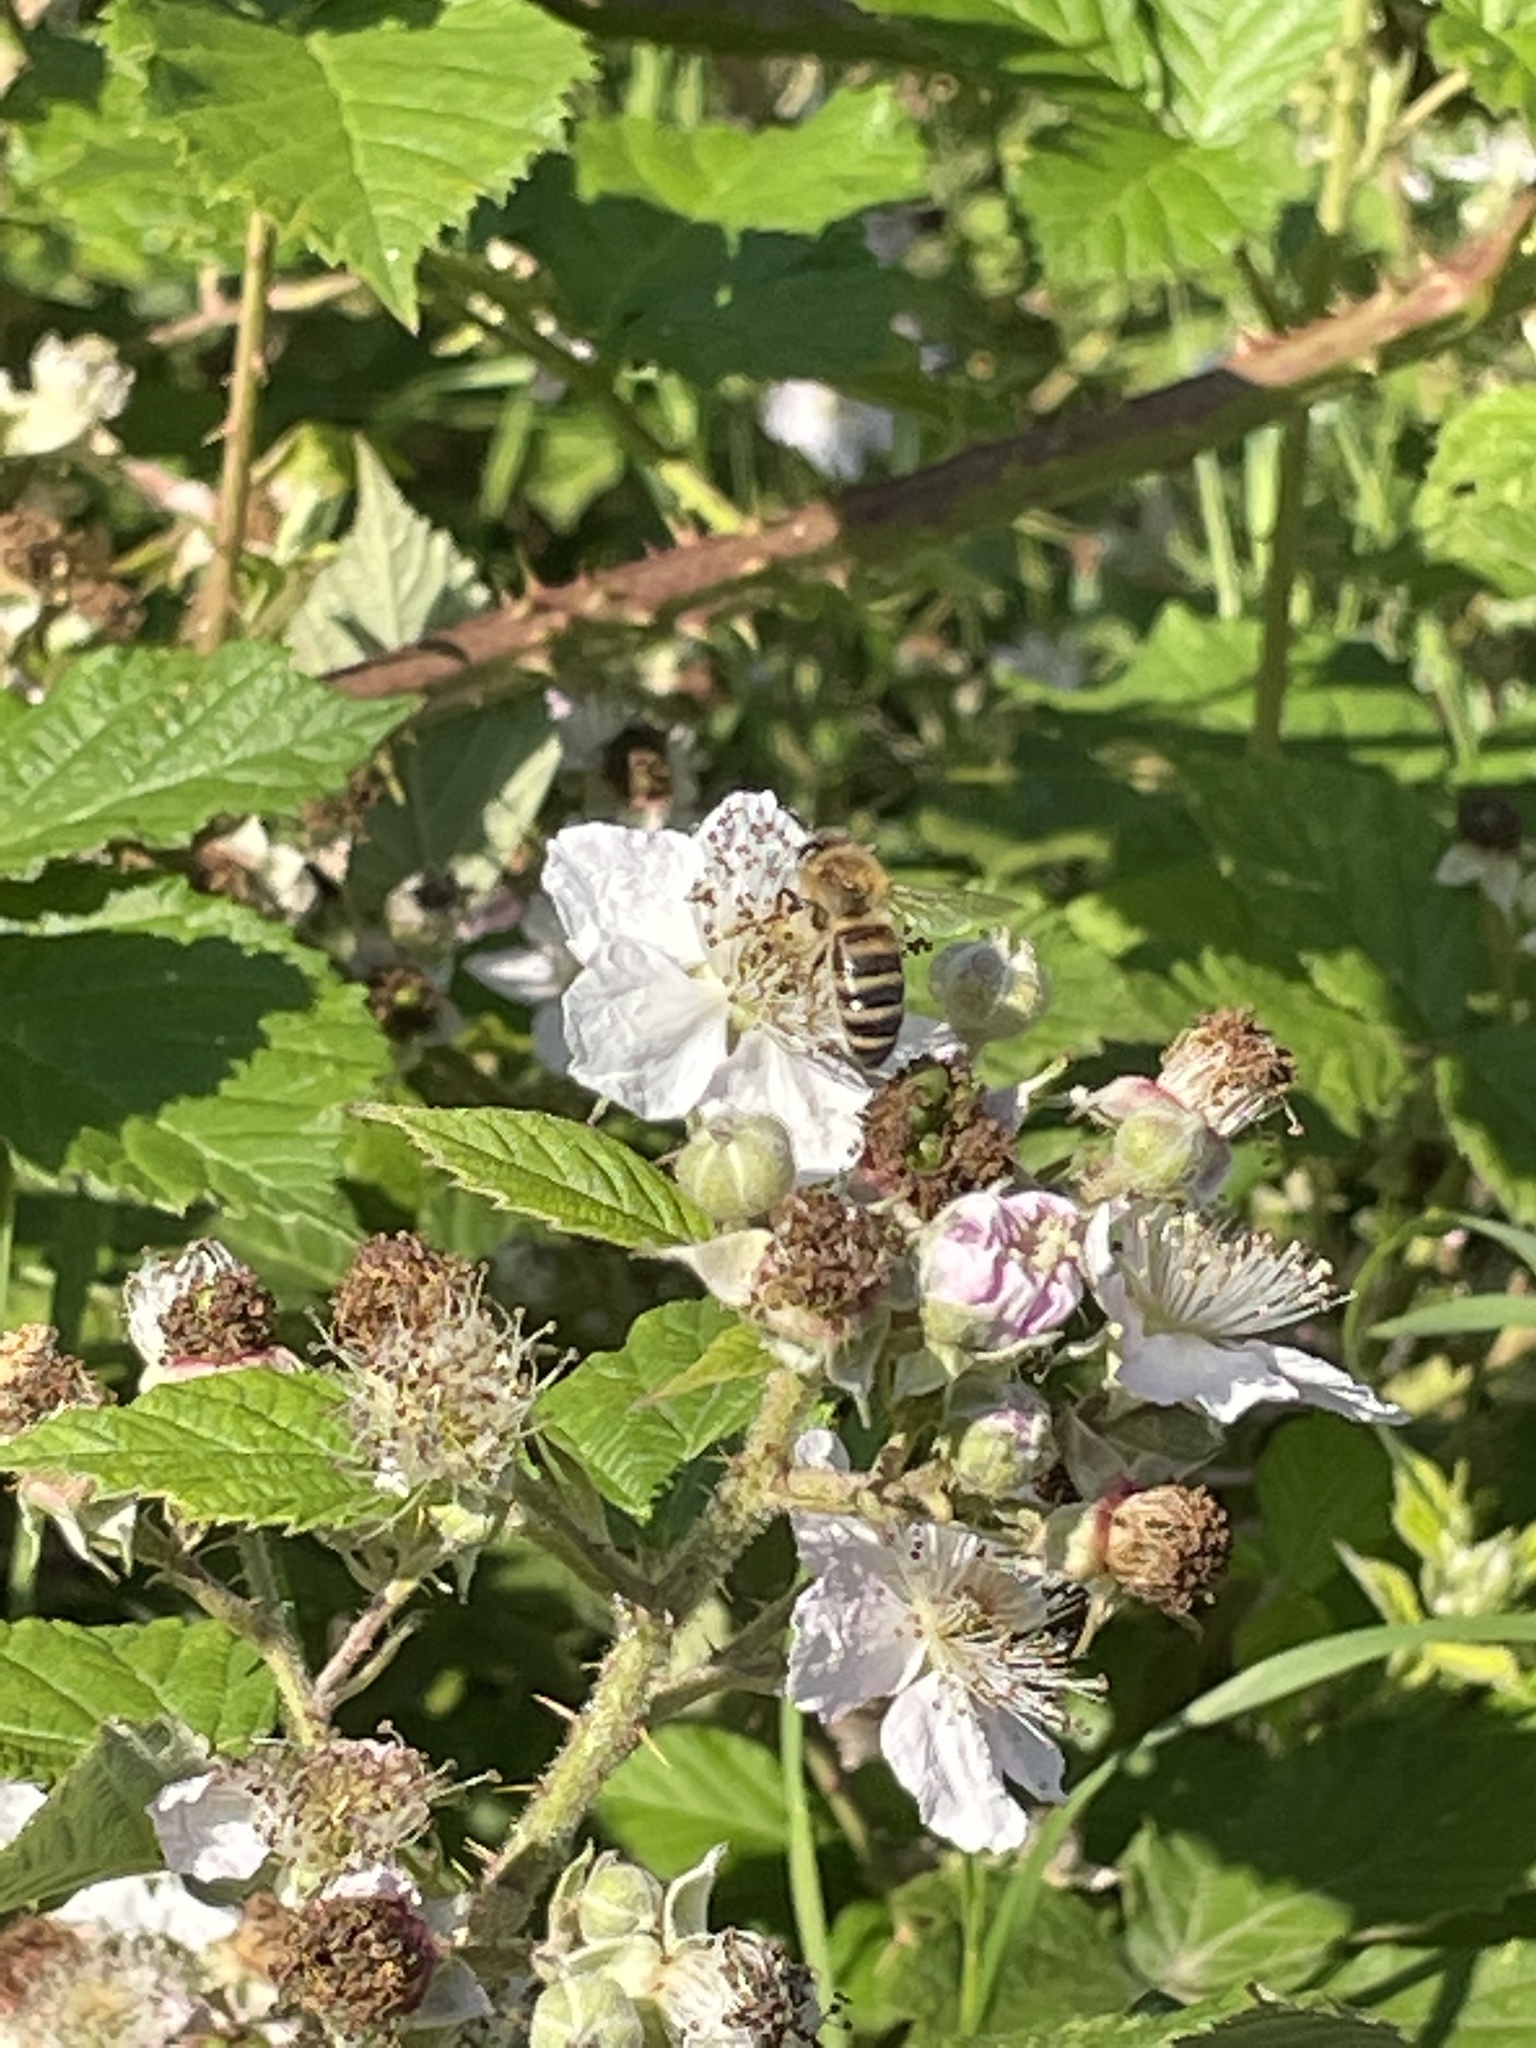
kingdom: Animalia
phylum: Arthropoda
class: Insecta
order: Hymenoptera
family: Apidae
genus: Apis
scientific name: Apis mellifera
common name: Honey bee
